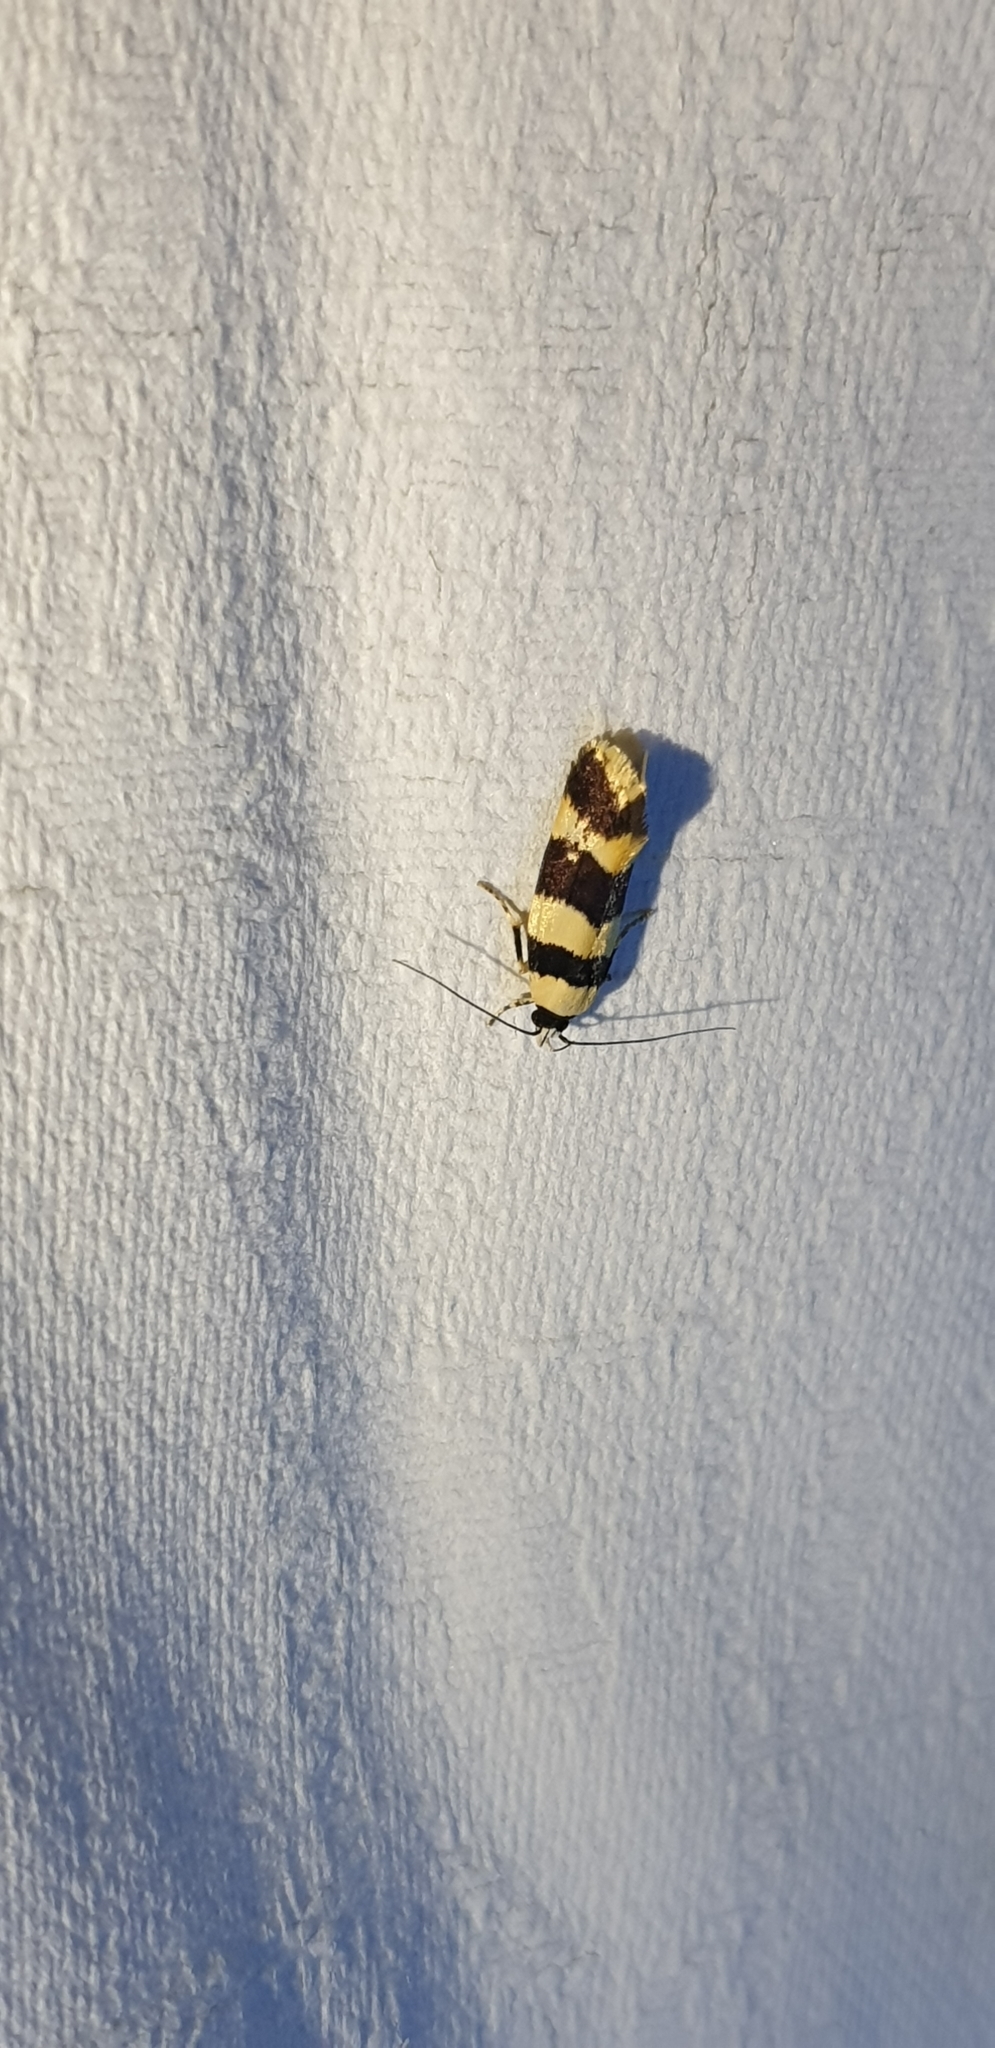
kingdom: Animalia
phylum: Arthropoda
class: Insecta
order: Lepidoptera
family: Xyloryctidae
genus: Lichenaula
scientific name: Lichenaula arisema
